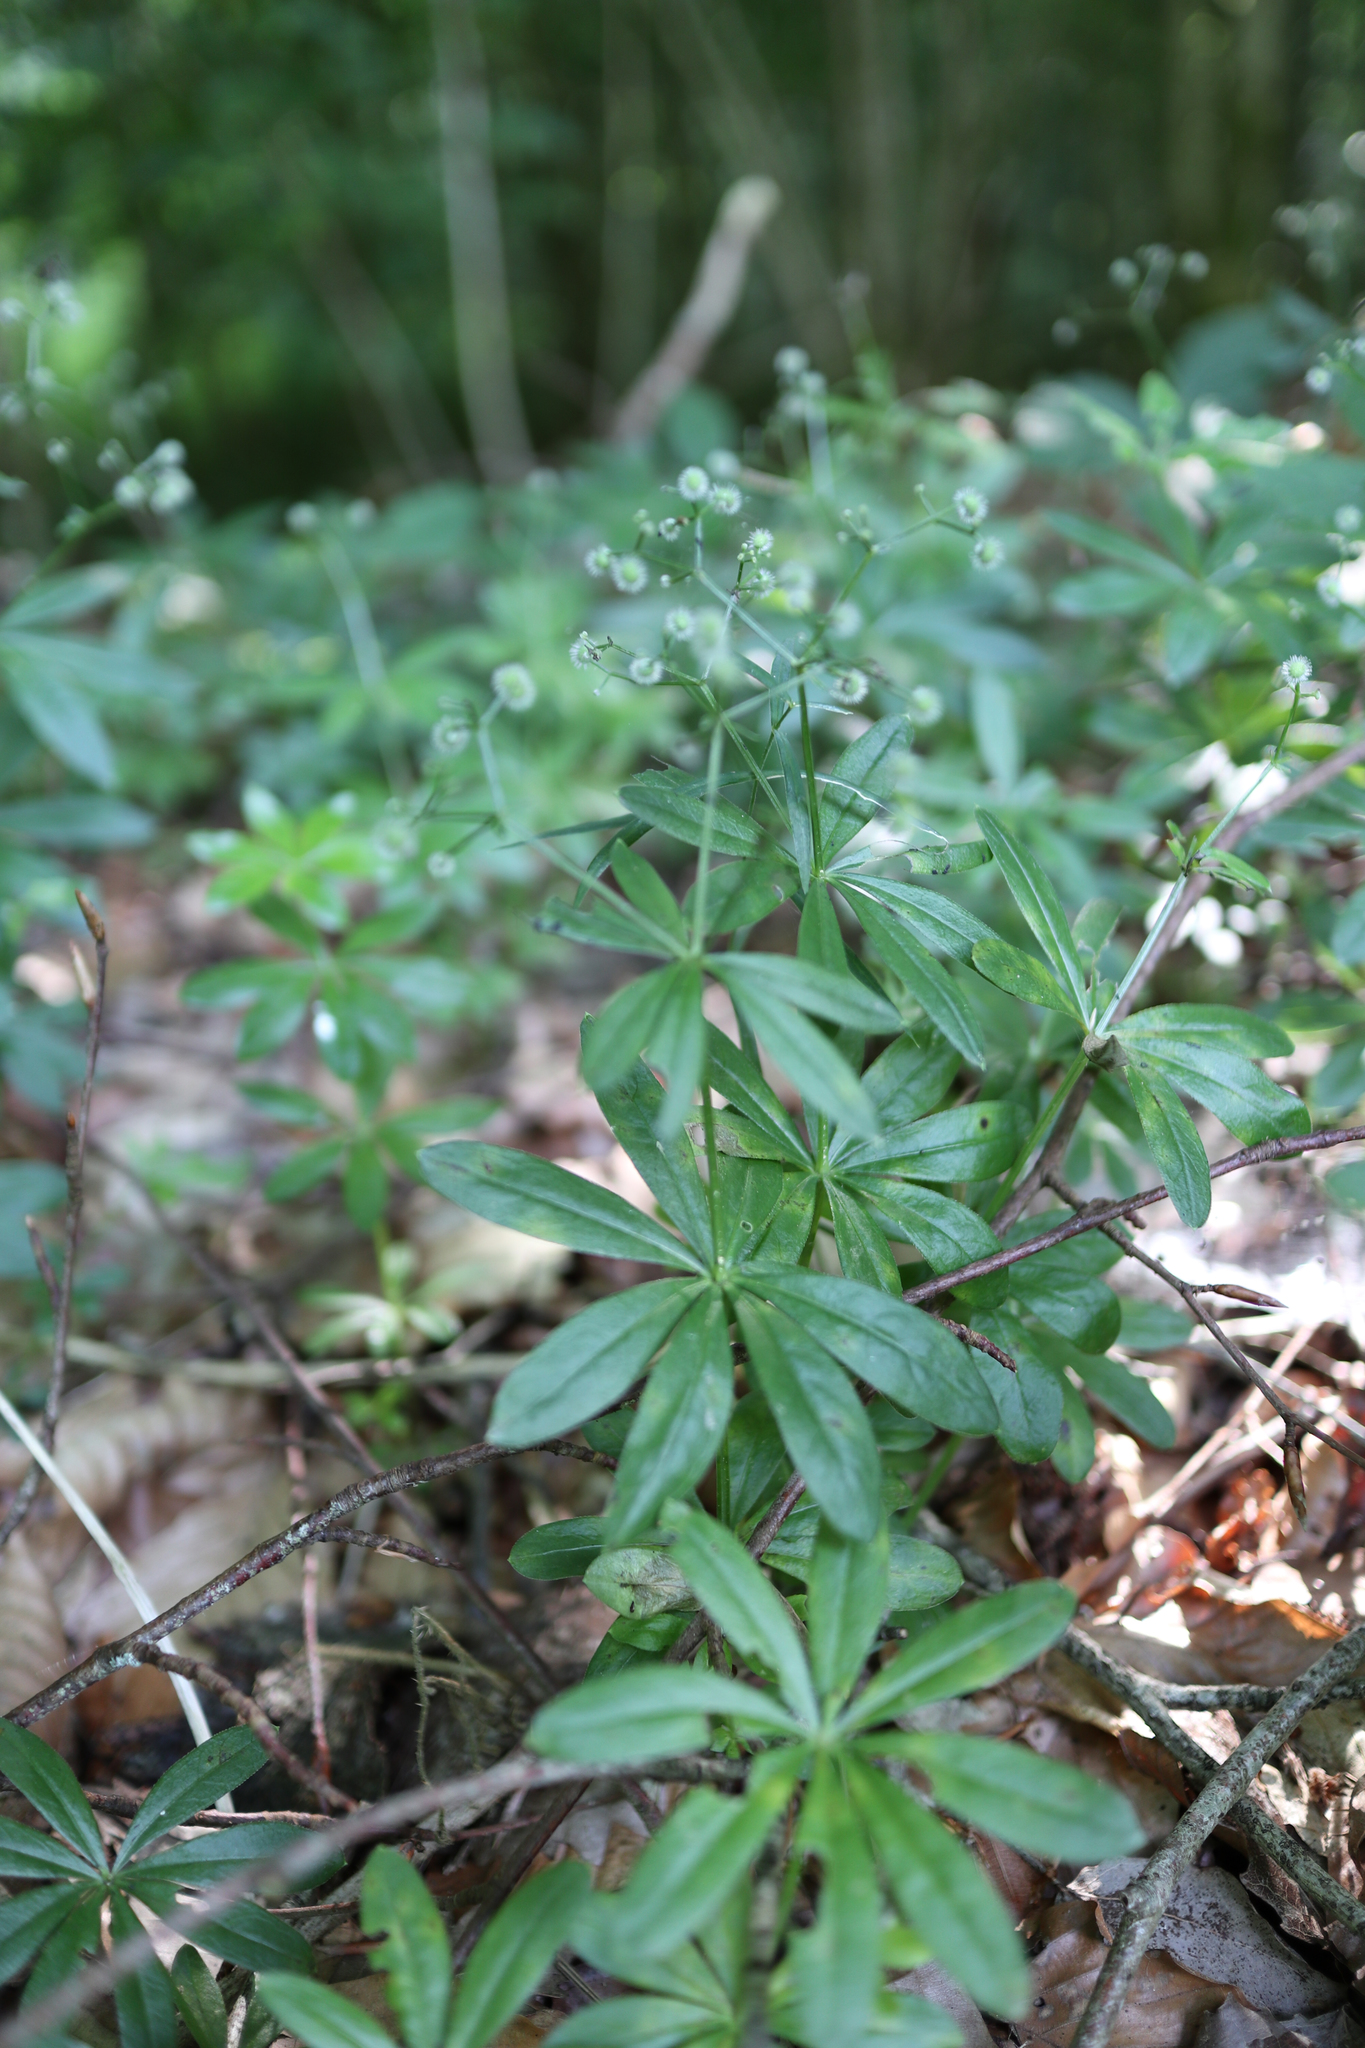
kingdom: Plantae
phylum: Tracheophyta
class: Magnoliopsida
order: Gentianales
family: Rubiaceae
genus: Galium
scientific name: Galium odoratum
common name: Sweet woodruff
